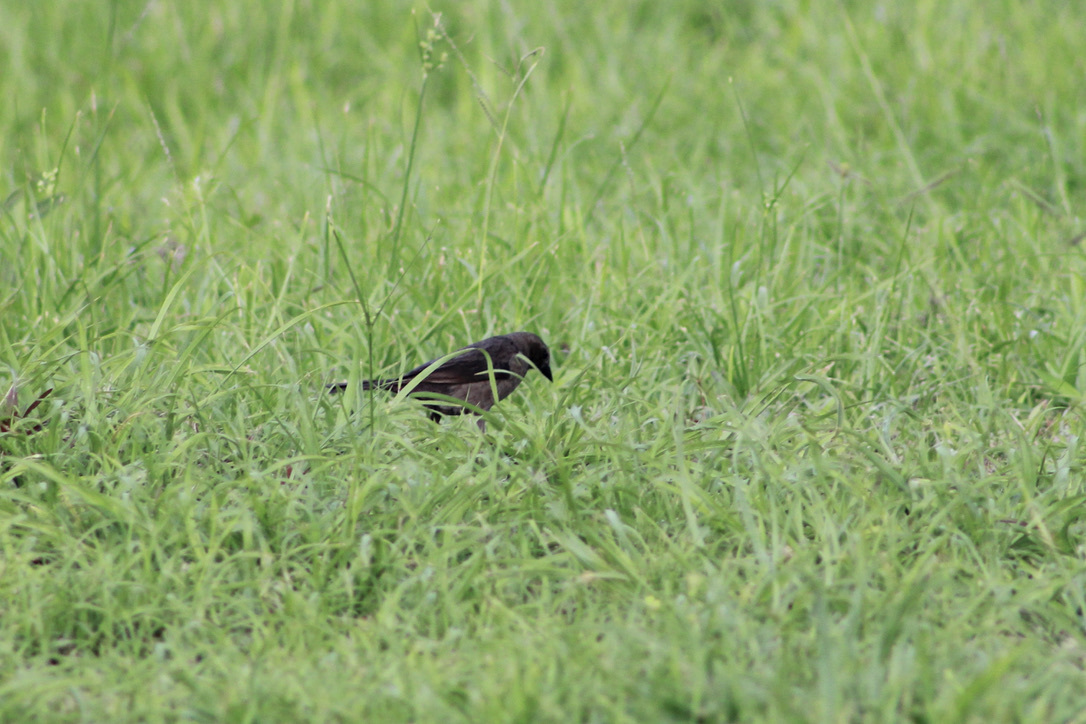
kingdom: Animalia
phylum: Chordata
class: Aves
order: Passeriformes
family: Icteridae
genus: Molothrus
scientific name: Molothrus bonariensis
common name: Shiny cowbird
